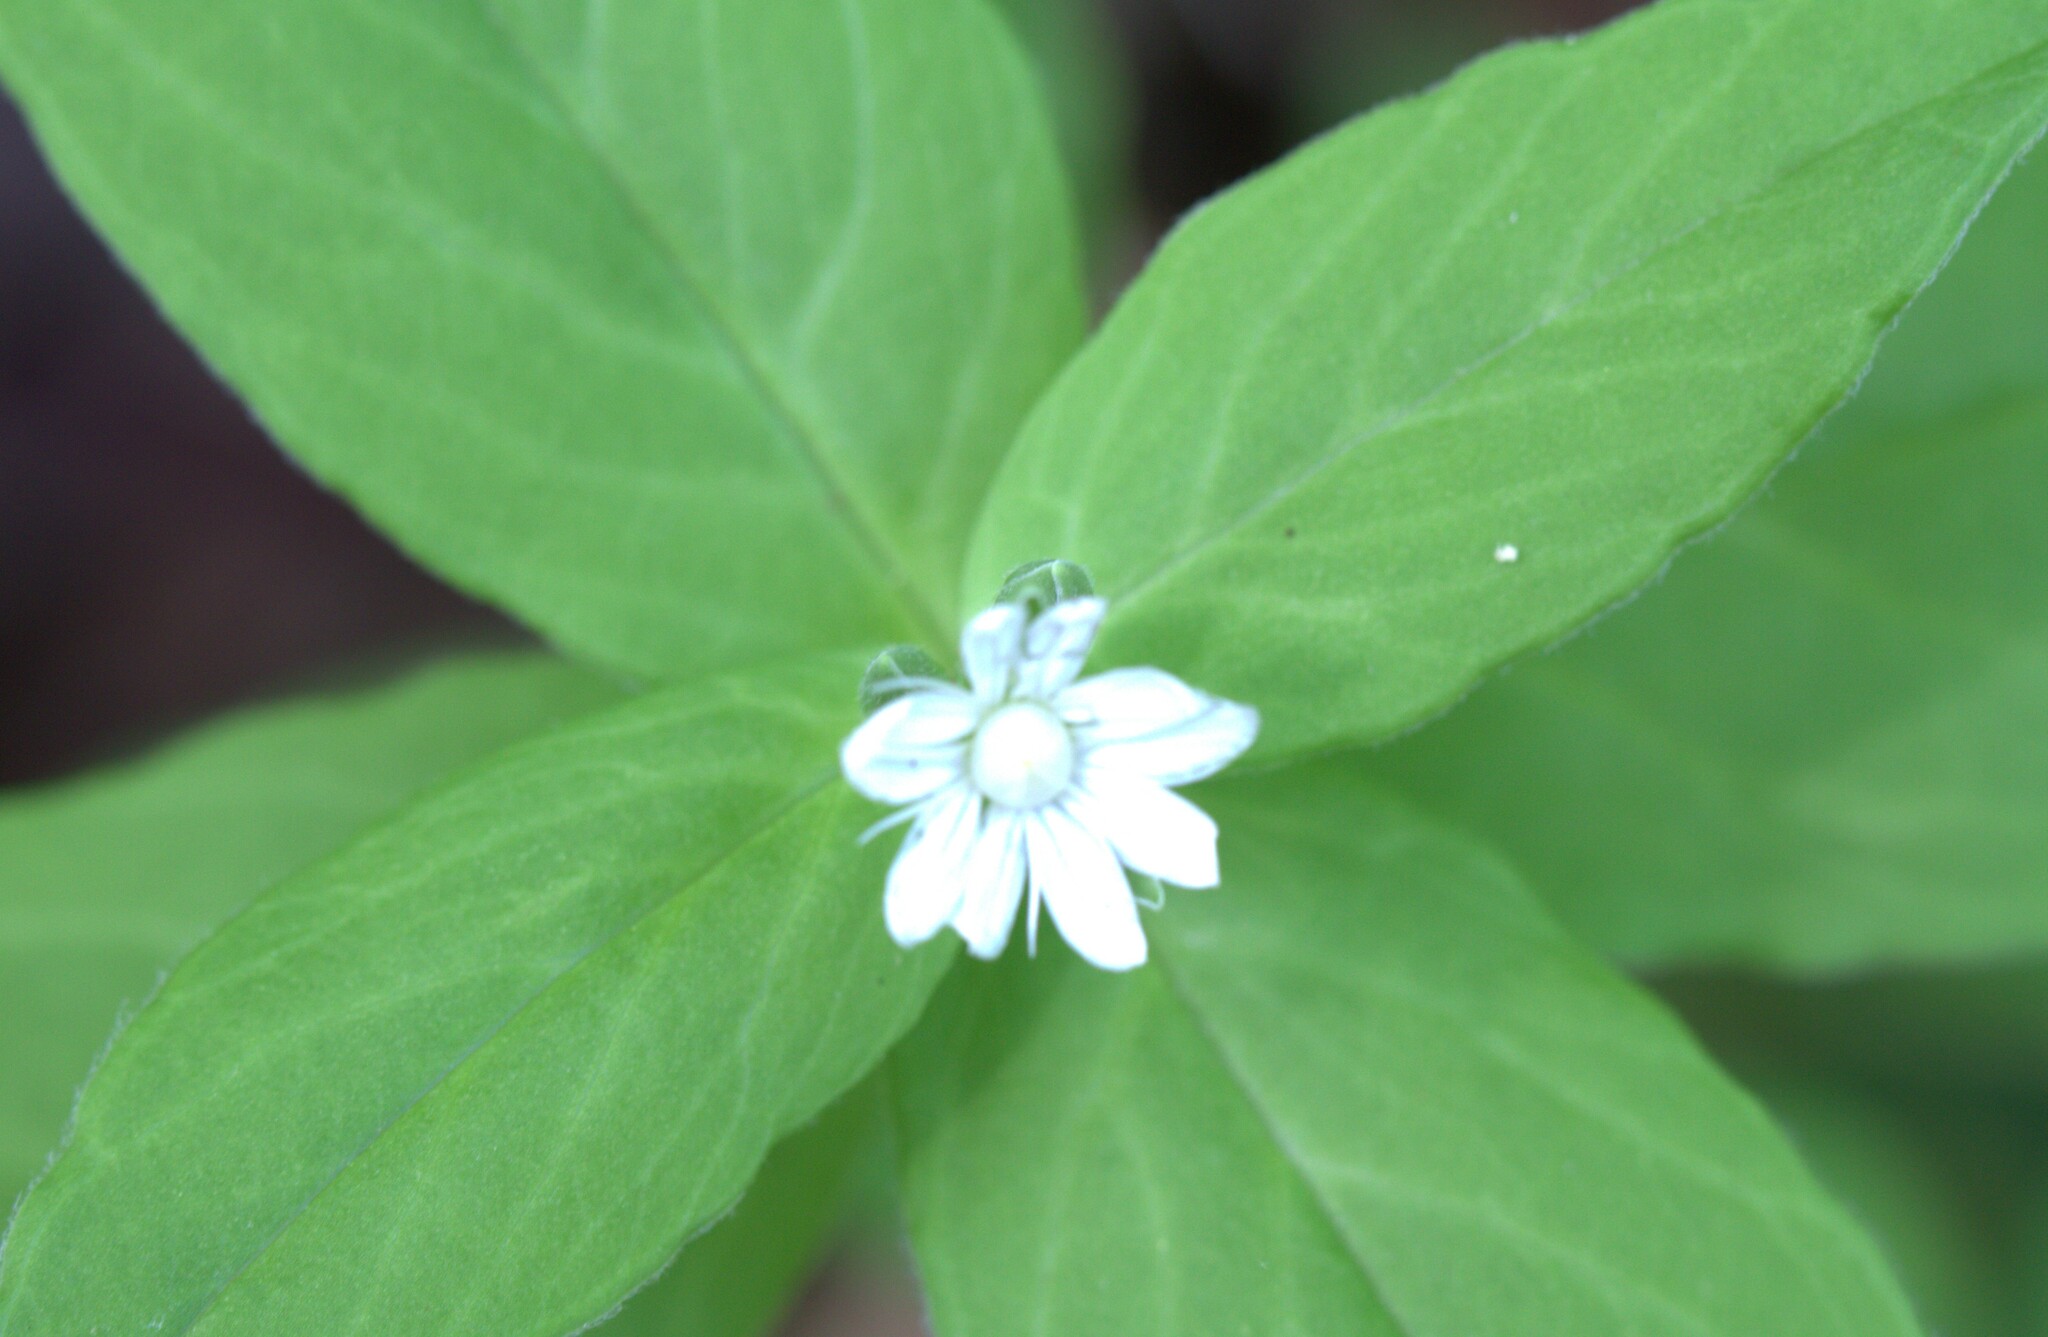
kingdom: Plantae
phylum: Tracheophyta
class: Magnoliopsida
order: Caryophyllales
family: Caryophyllaceae
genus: Stellaria
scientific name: Stellaria pubera
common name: Star chickweed
